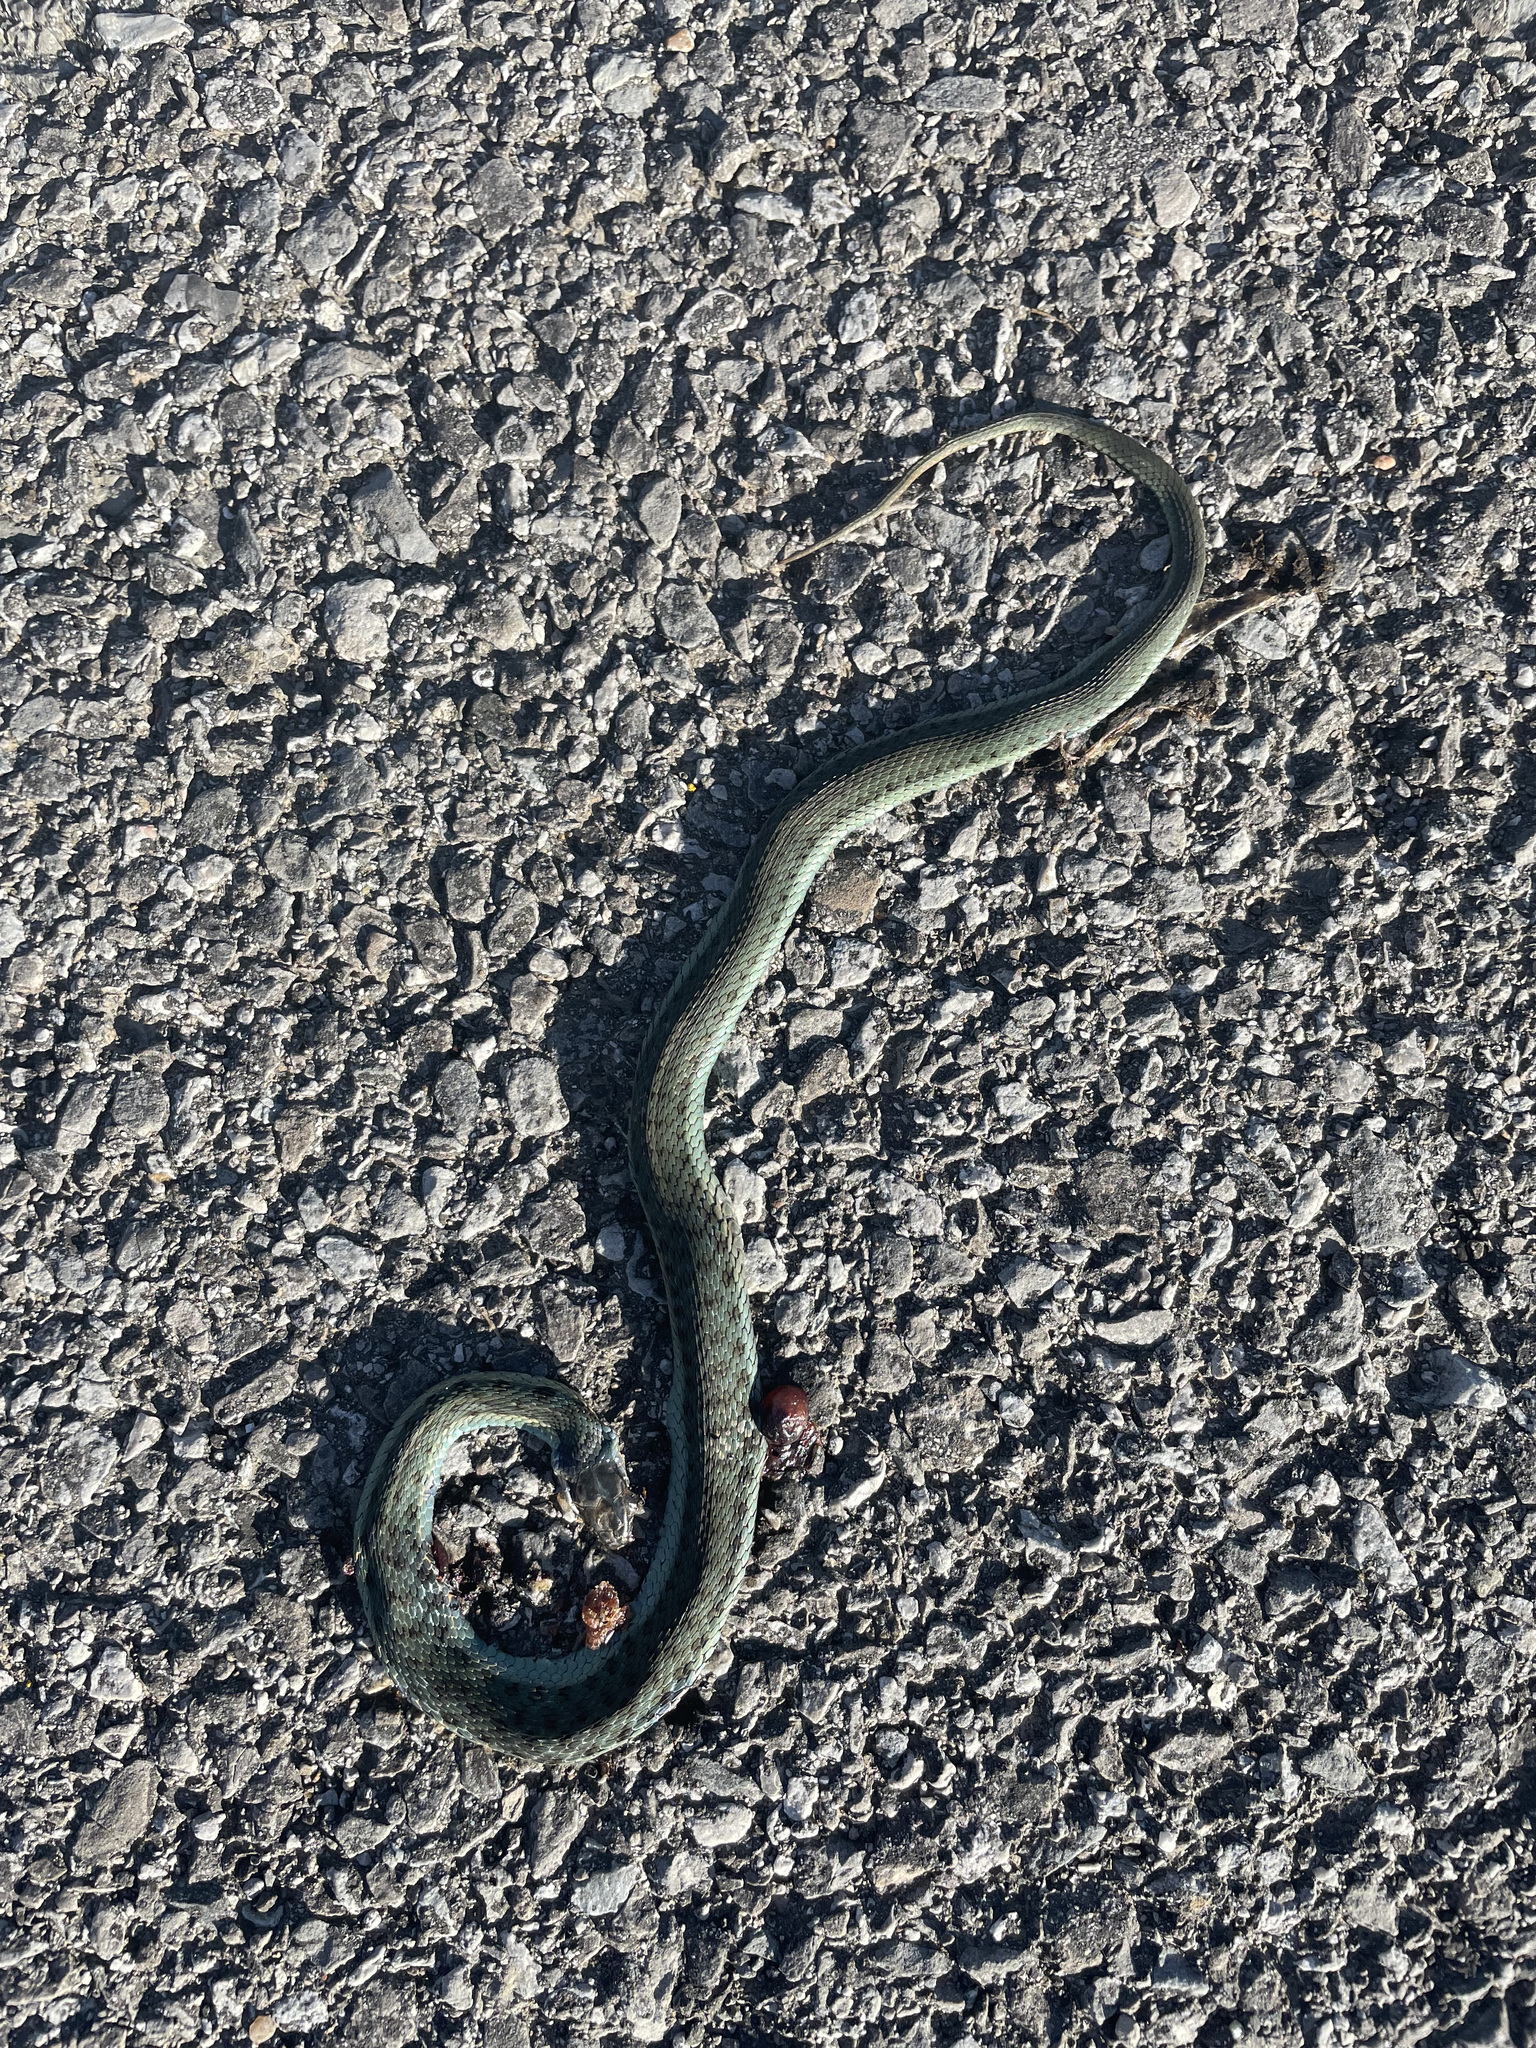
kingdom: Animalia
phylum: Chordata
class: Squamata
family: Colubridae
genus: Thamnophis
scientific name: Thamnophis sirtalis
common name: Common garter snake
